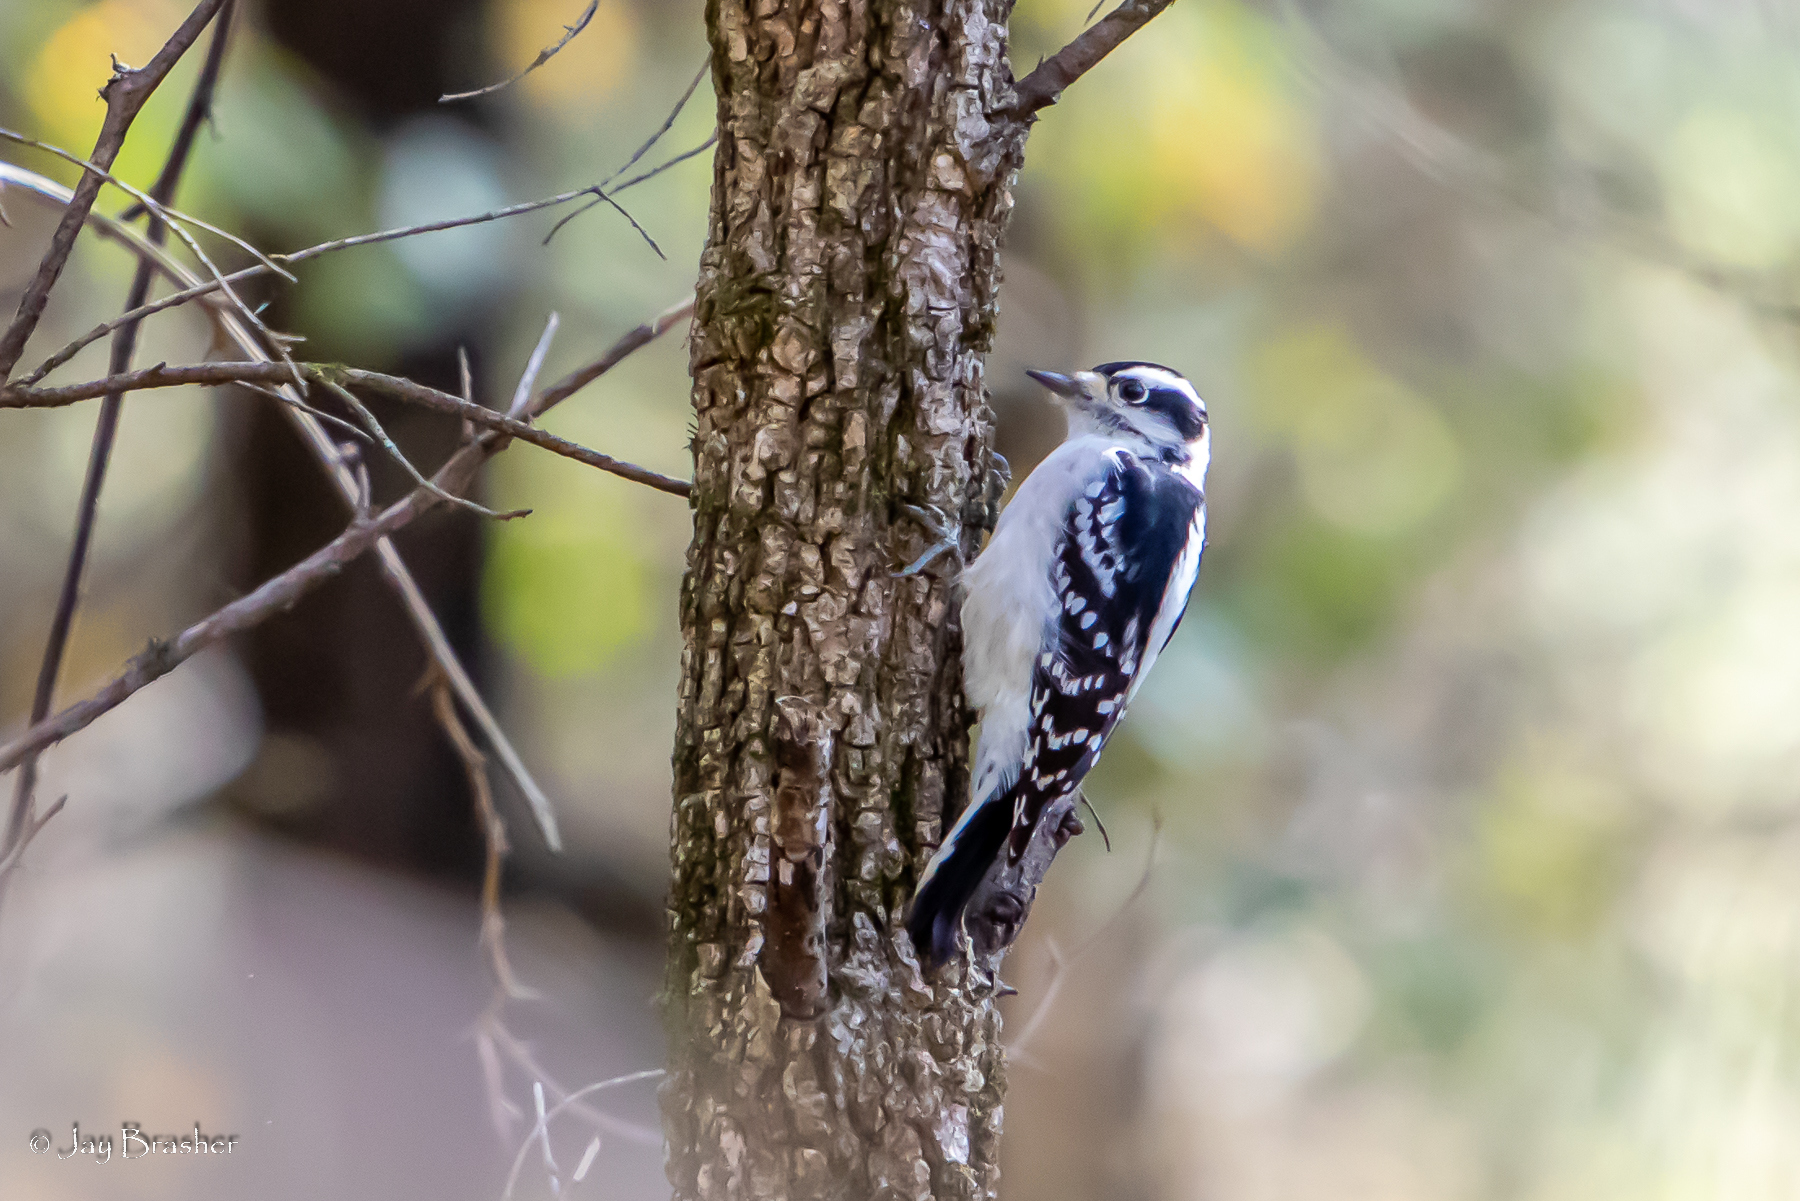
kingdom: Animalia
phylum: Chordata
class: Aves
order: Piciformes
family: Picidae
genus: Dryobates
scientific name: Dryobates pubescens
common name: Downy woodpecker
